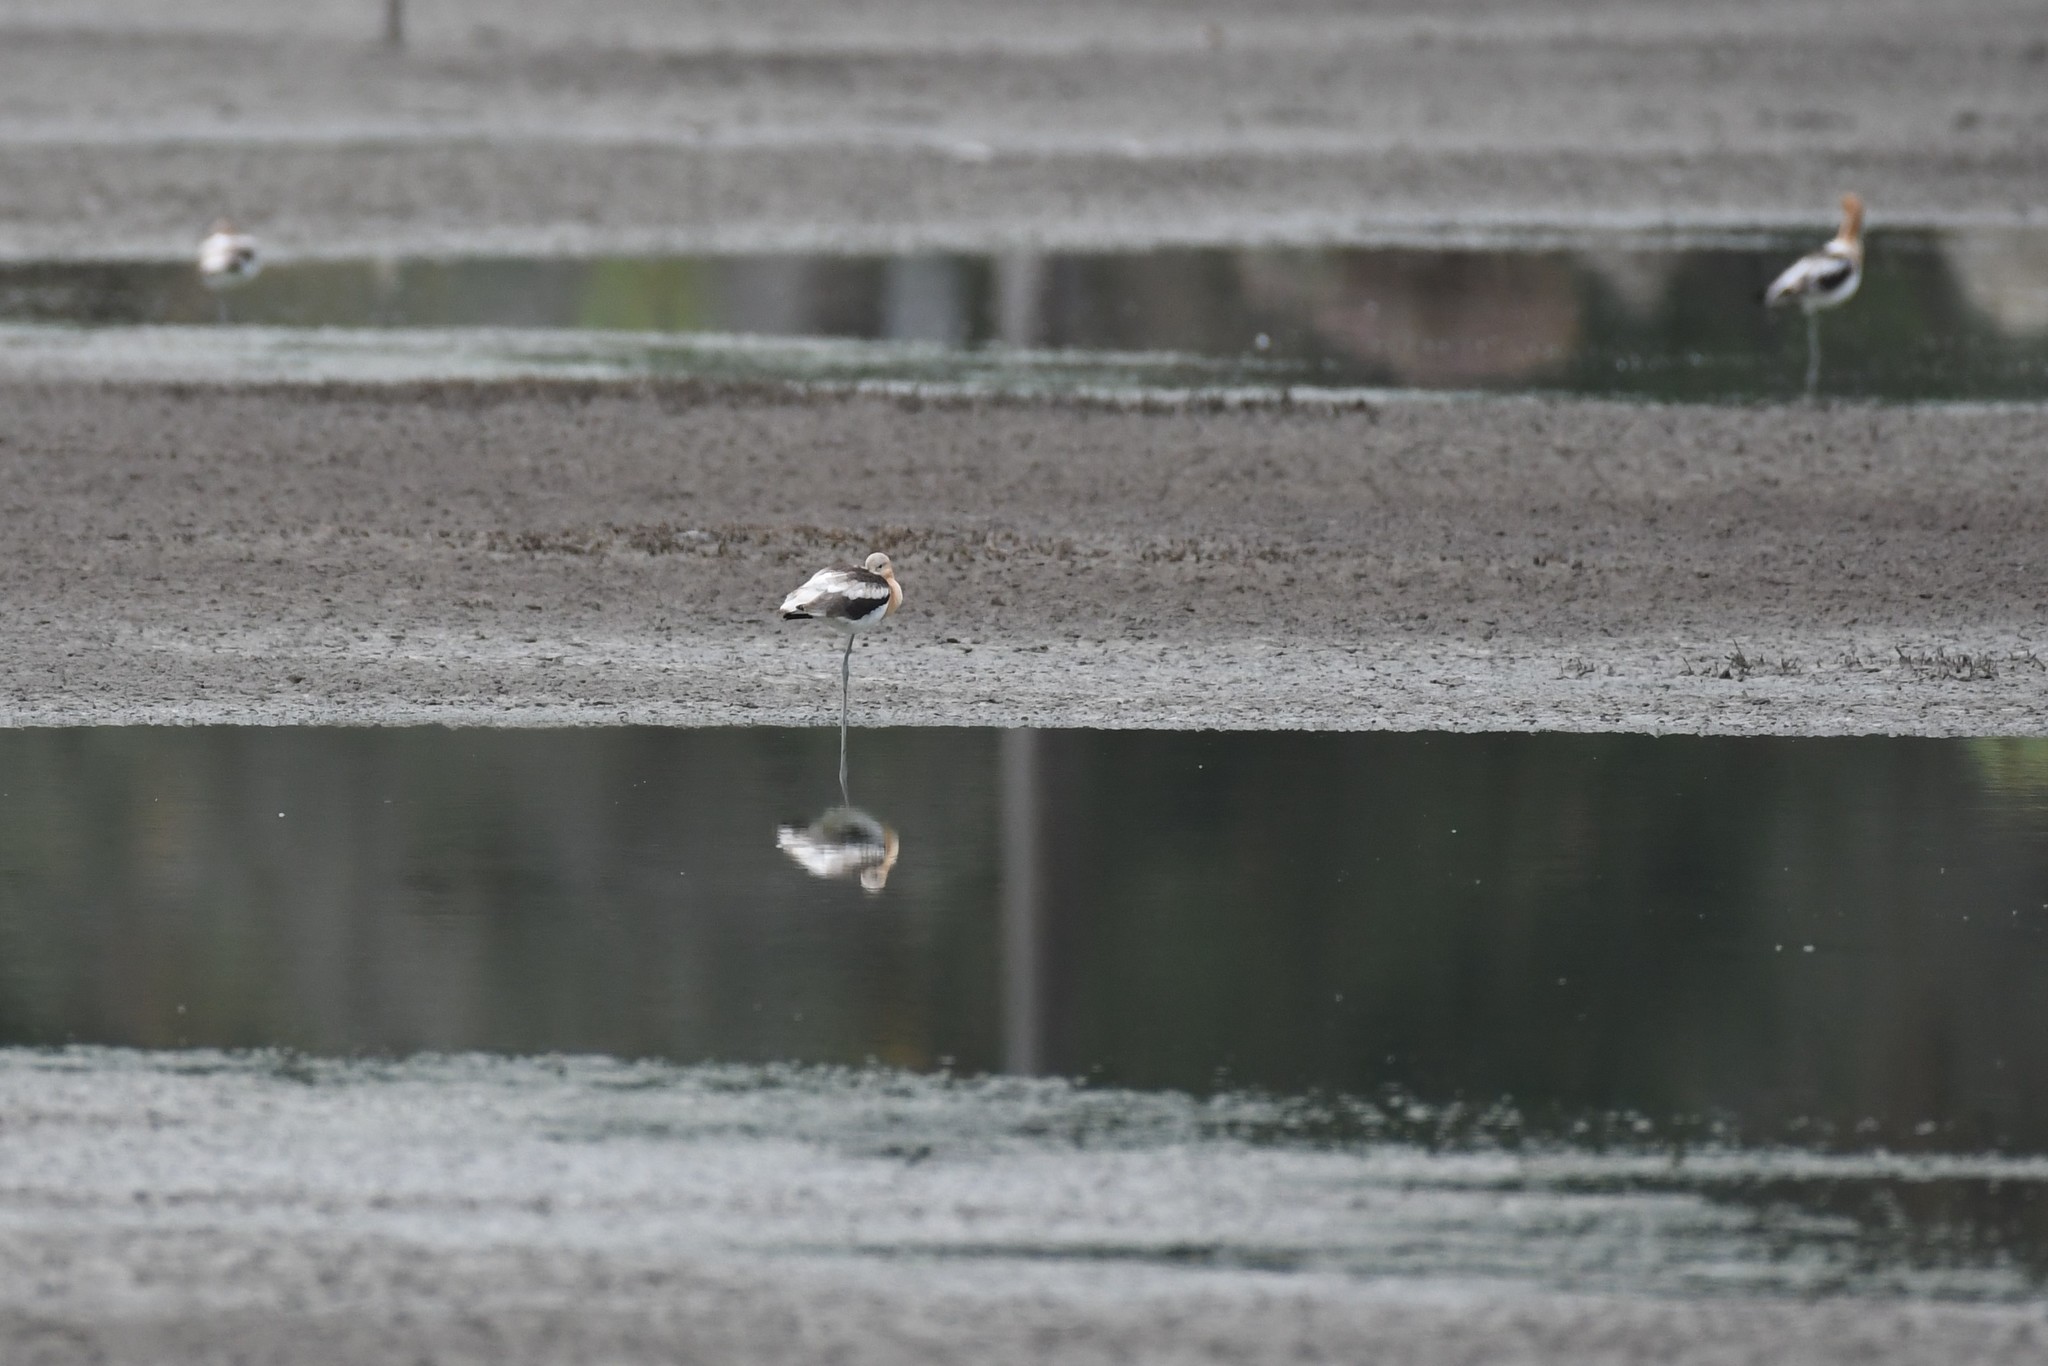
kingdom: Animalia
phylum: Chordata
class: Aves
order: Charadriiformes
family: Recurvirostridae
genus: Recurvirostra
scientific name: Recurvirostra americana
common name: American avocet
